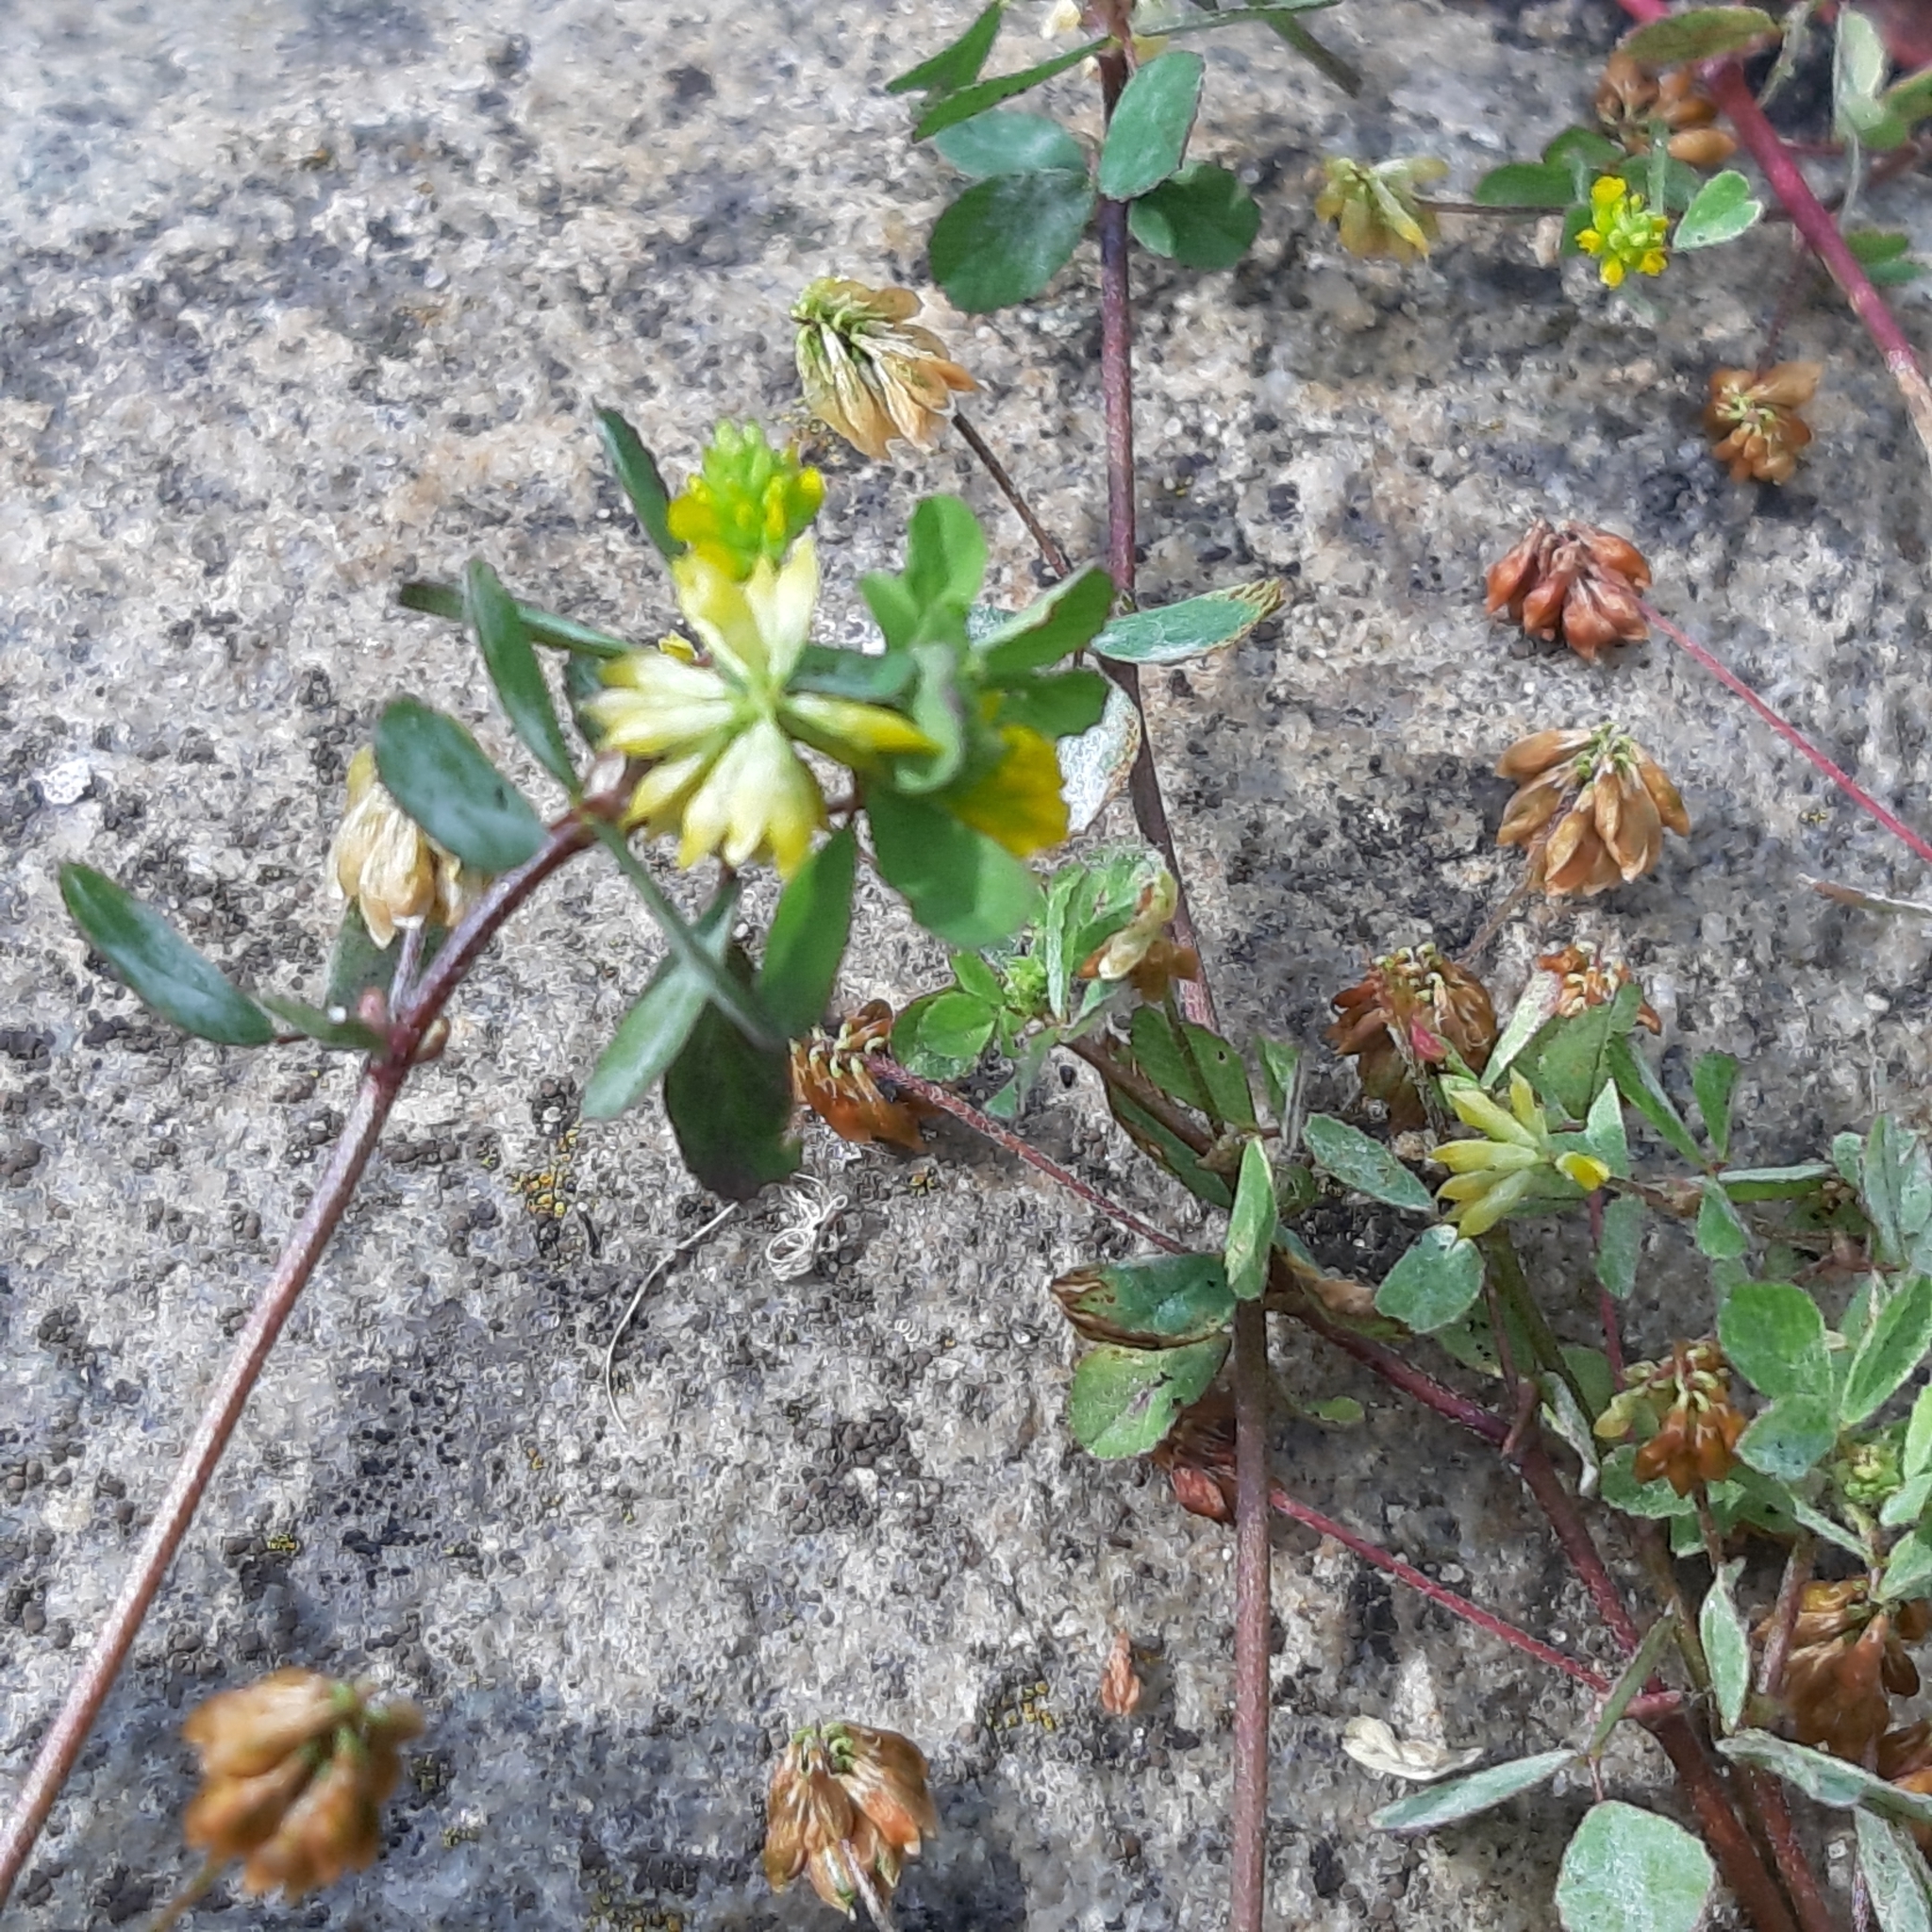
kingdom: Plantae
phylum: Tracheophyta
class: Magnoliopsida
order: Fabales
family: Fabaceae
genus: Trifolium
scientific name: Trifolium dubium
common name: Suckling clover
